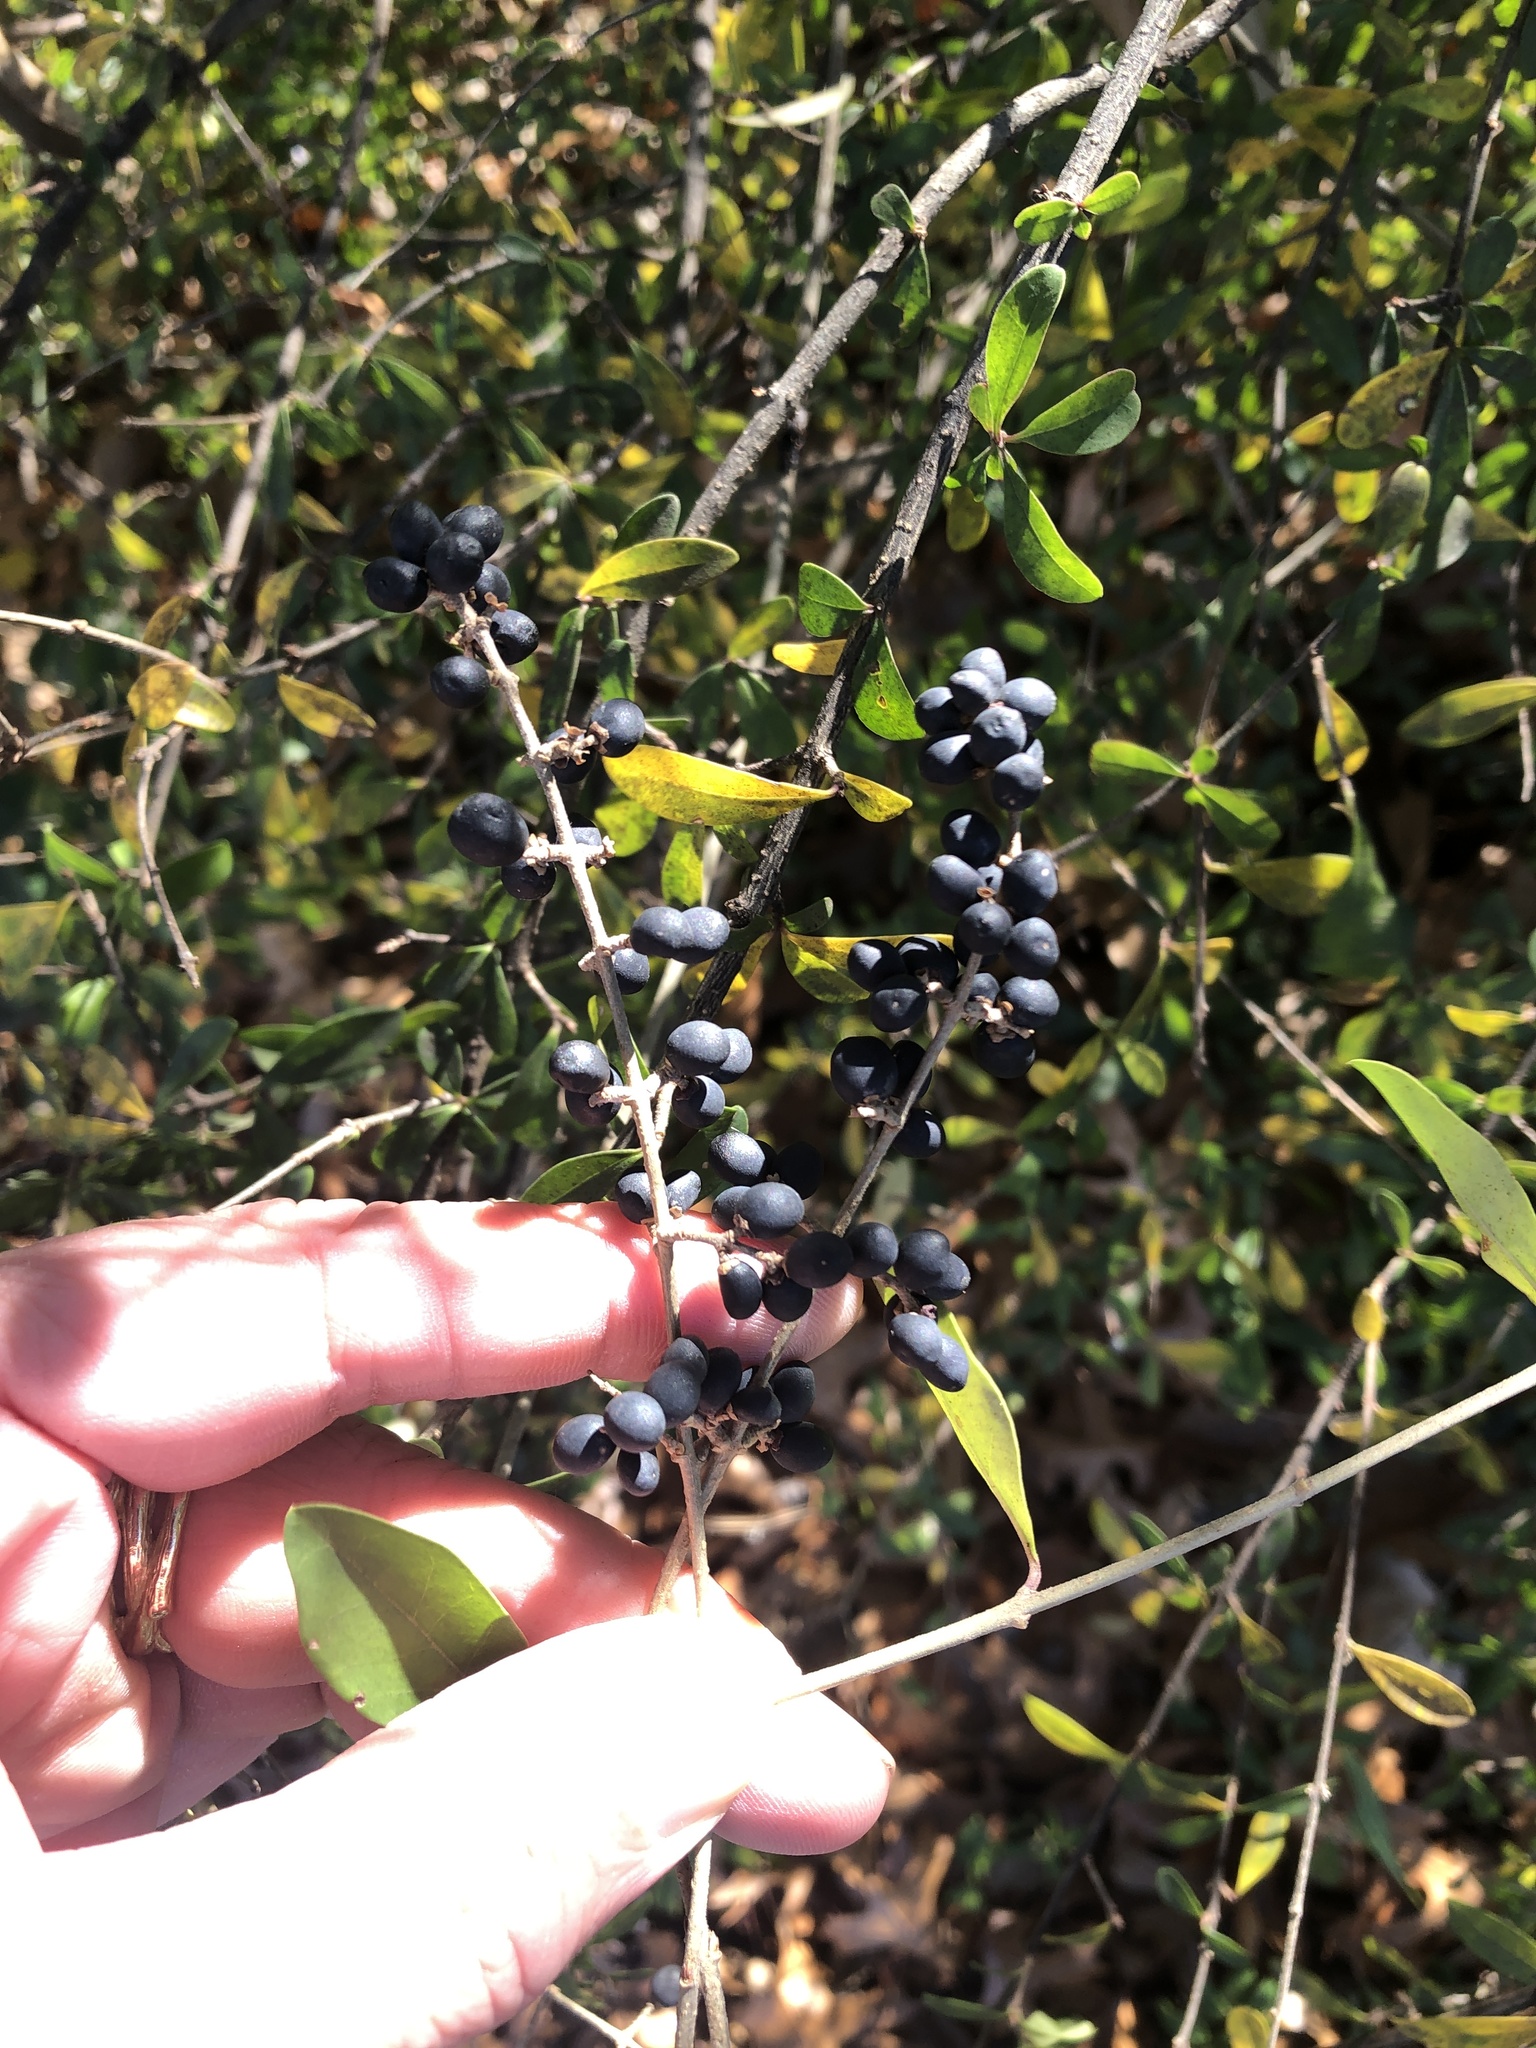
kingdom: Plantae
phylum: Tracheophyta
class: Magnoliopsida
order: Lamiales
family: Oleaceae
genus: Ligustrum
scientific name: Ligustrum quihoui
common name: Waxyleaf privet
